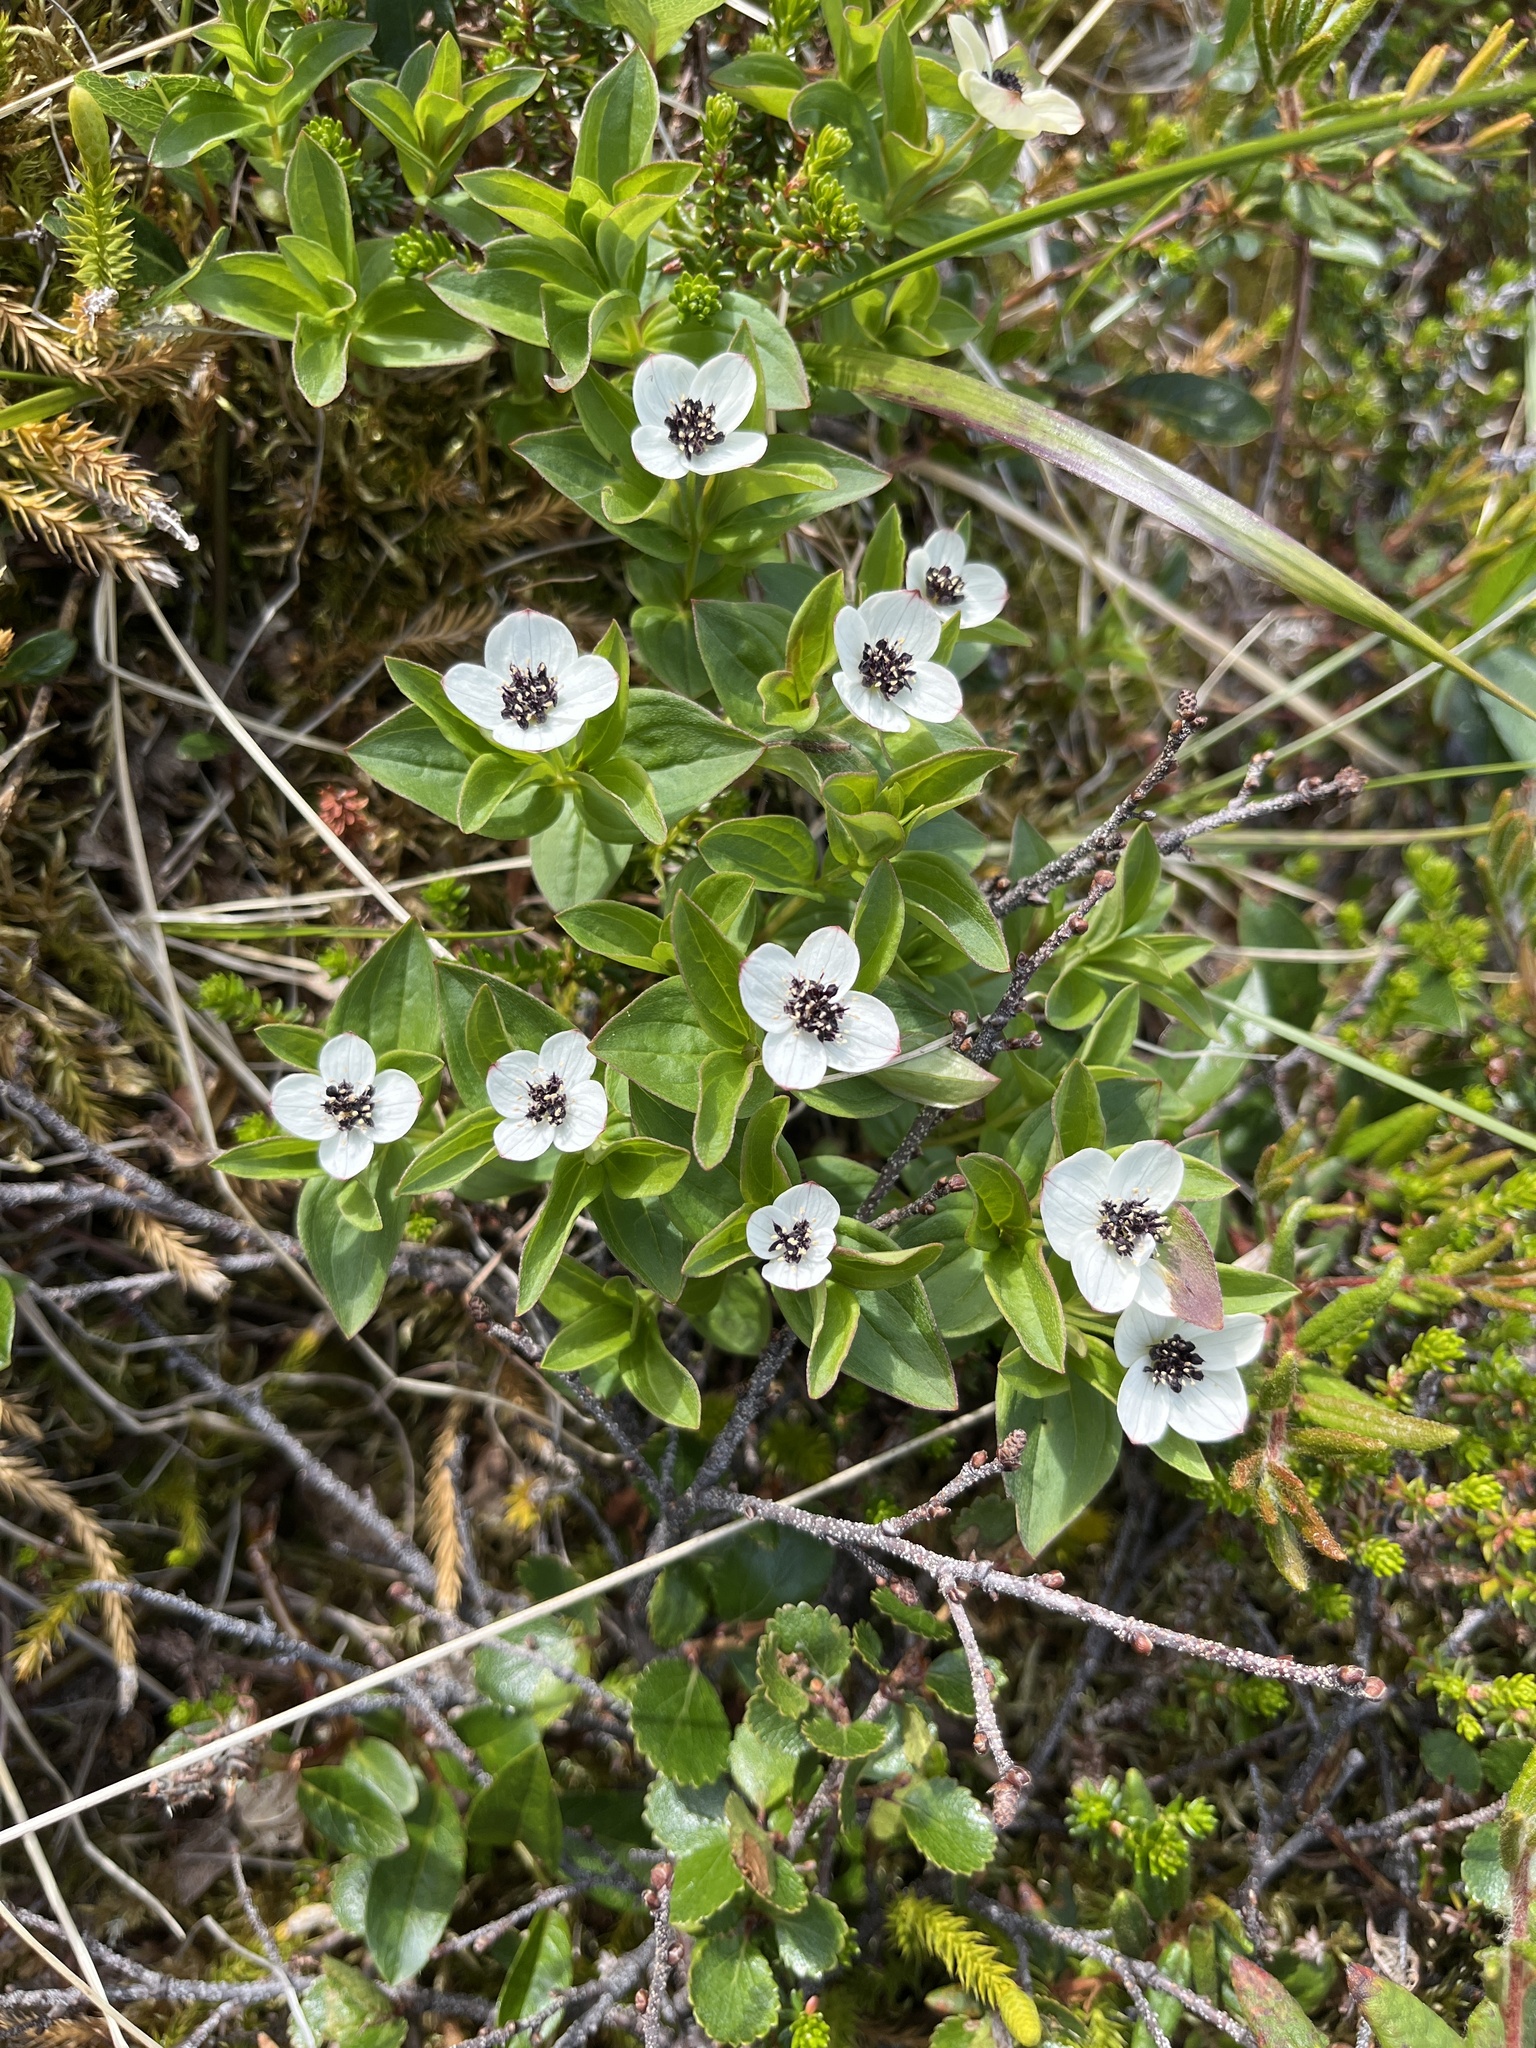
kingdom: Plantae
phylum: Tracheophyta
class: Magnoliopsida
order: Cornales
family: Cornaceae
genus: Cornus
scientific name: Cornus suecica
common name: Dwarf cornel
